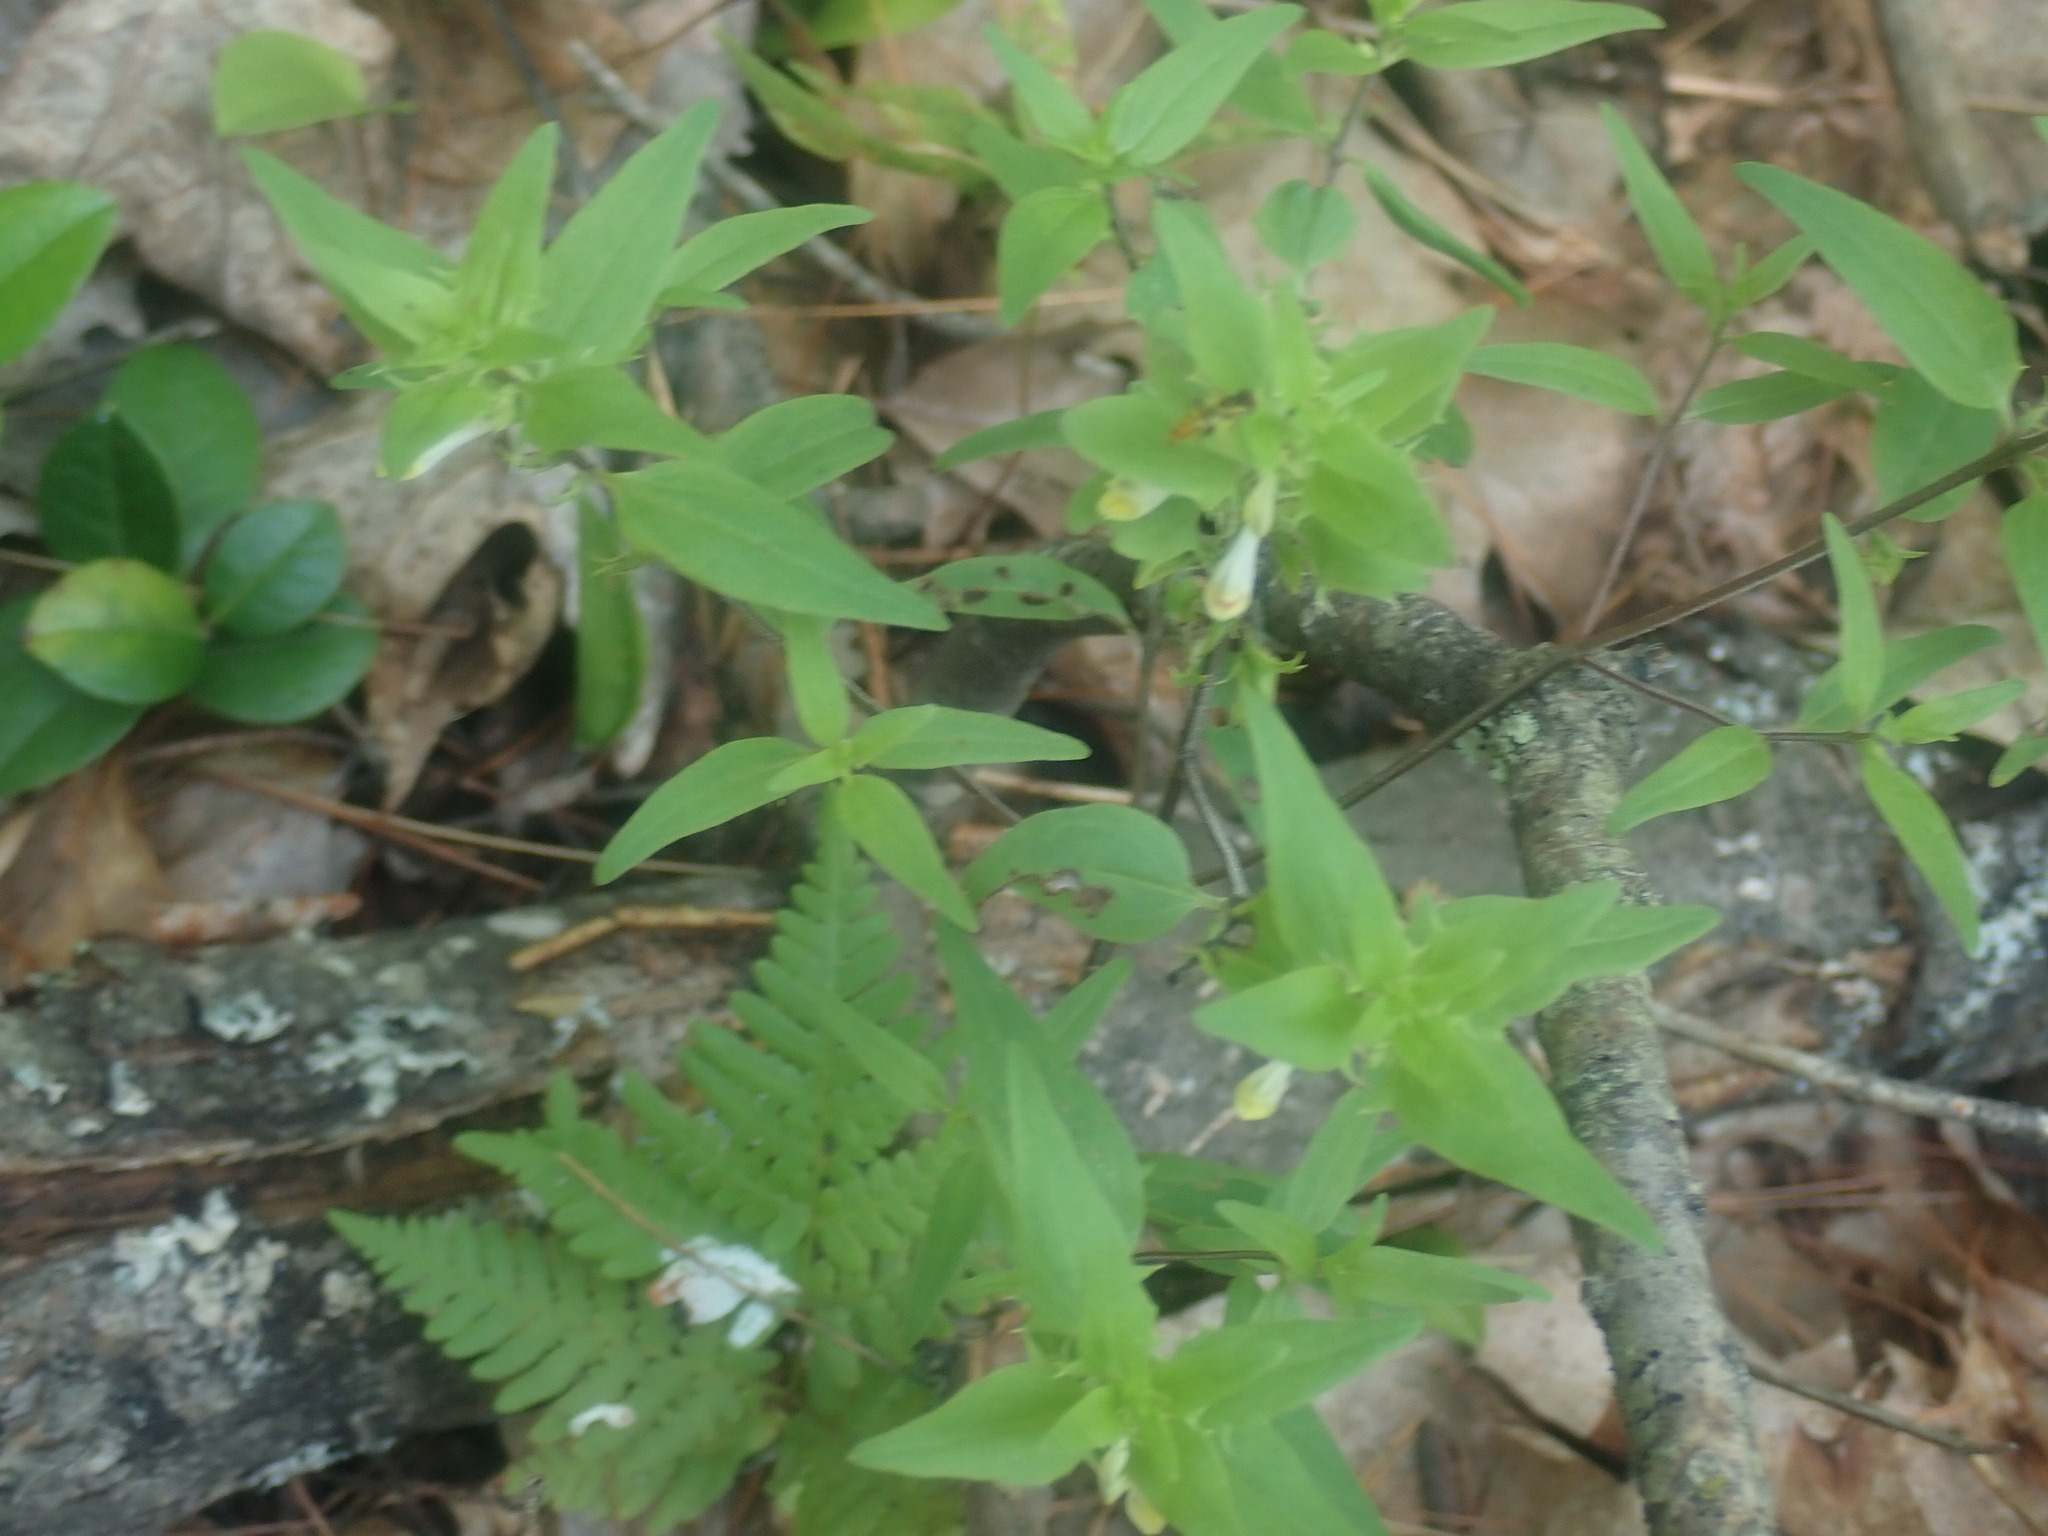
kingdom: Plantae
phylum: Tracheophyta
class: Magnoliopsida
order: Lamiales
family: Orobanchaceae
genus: Melampyrum
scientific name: Melampyrum lineare
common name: American cow-wheat
